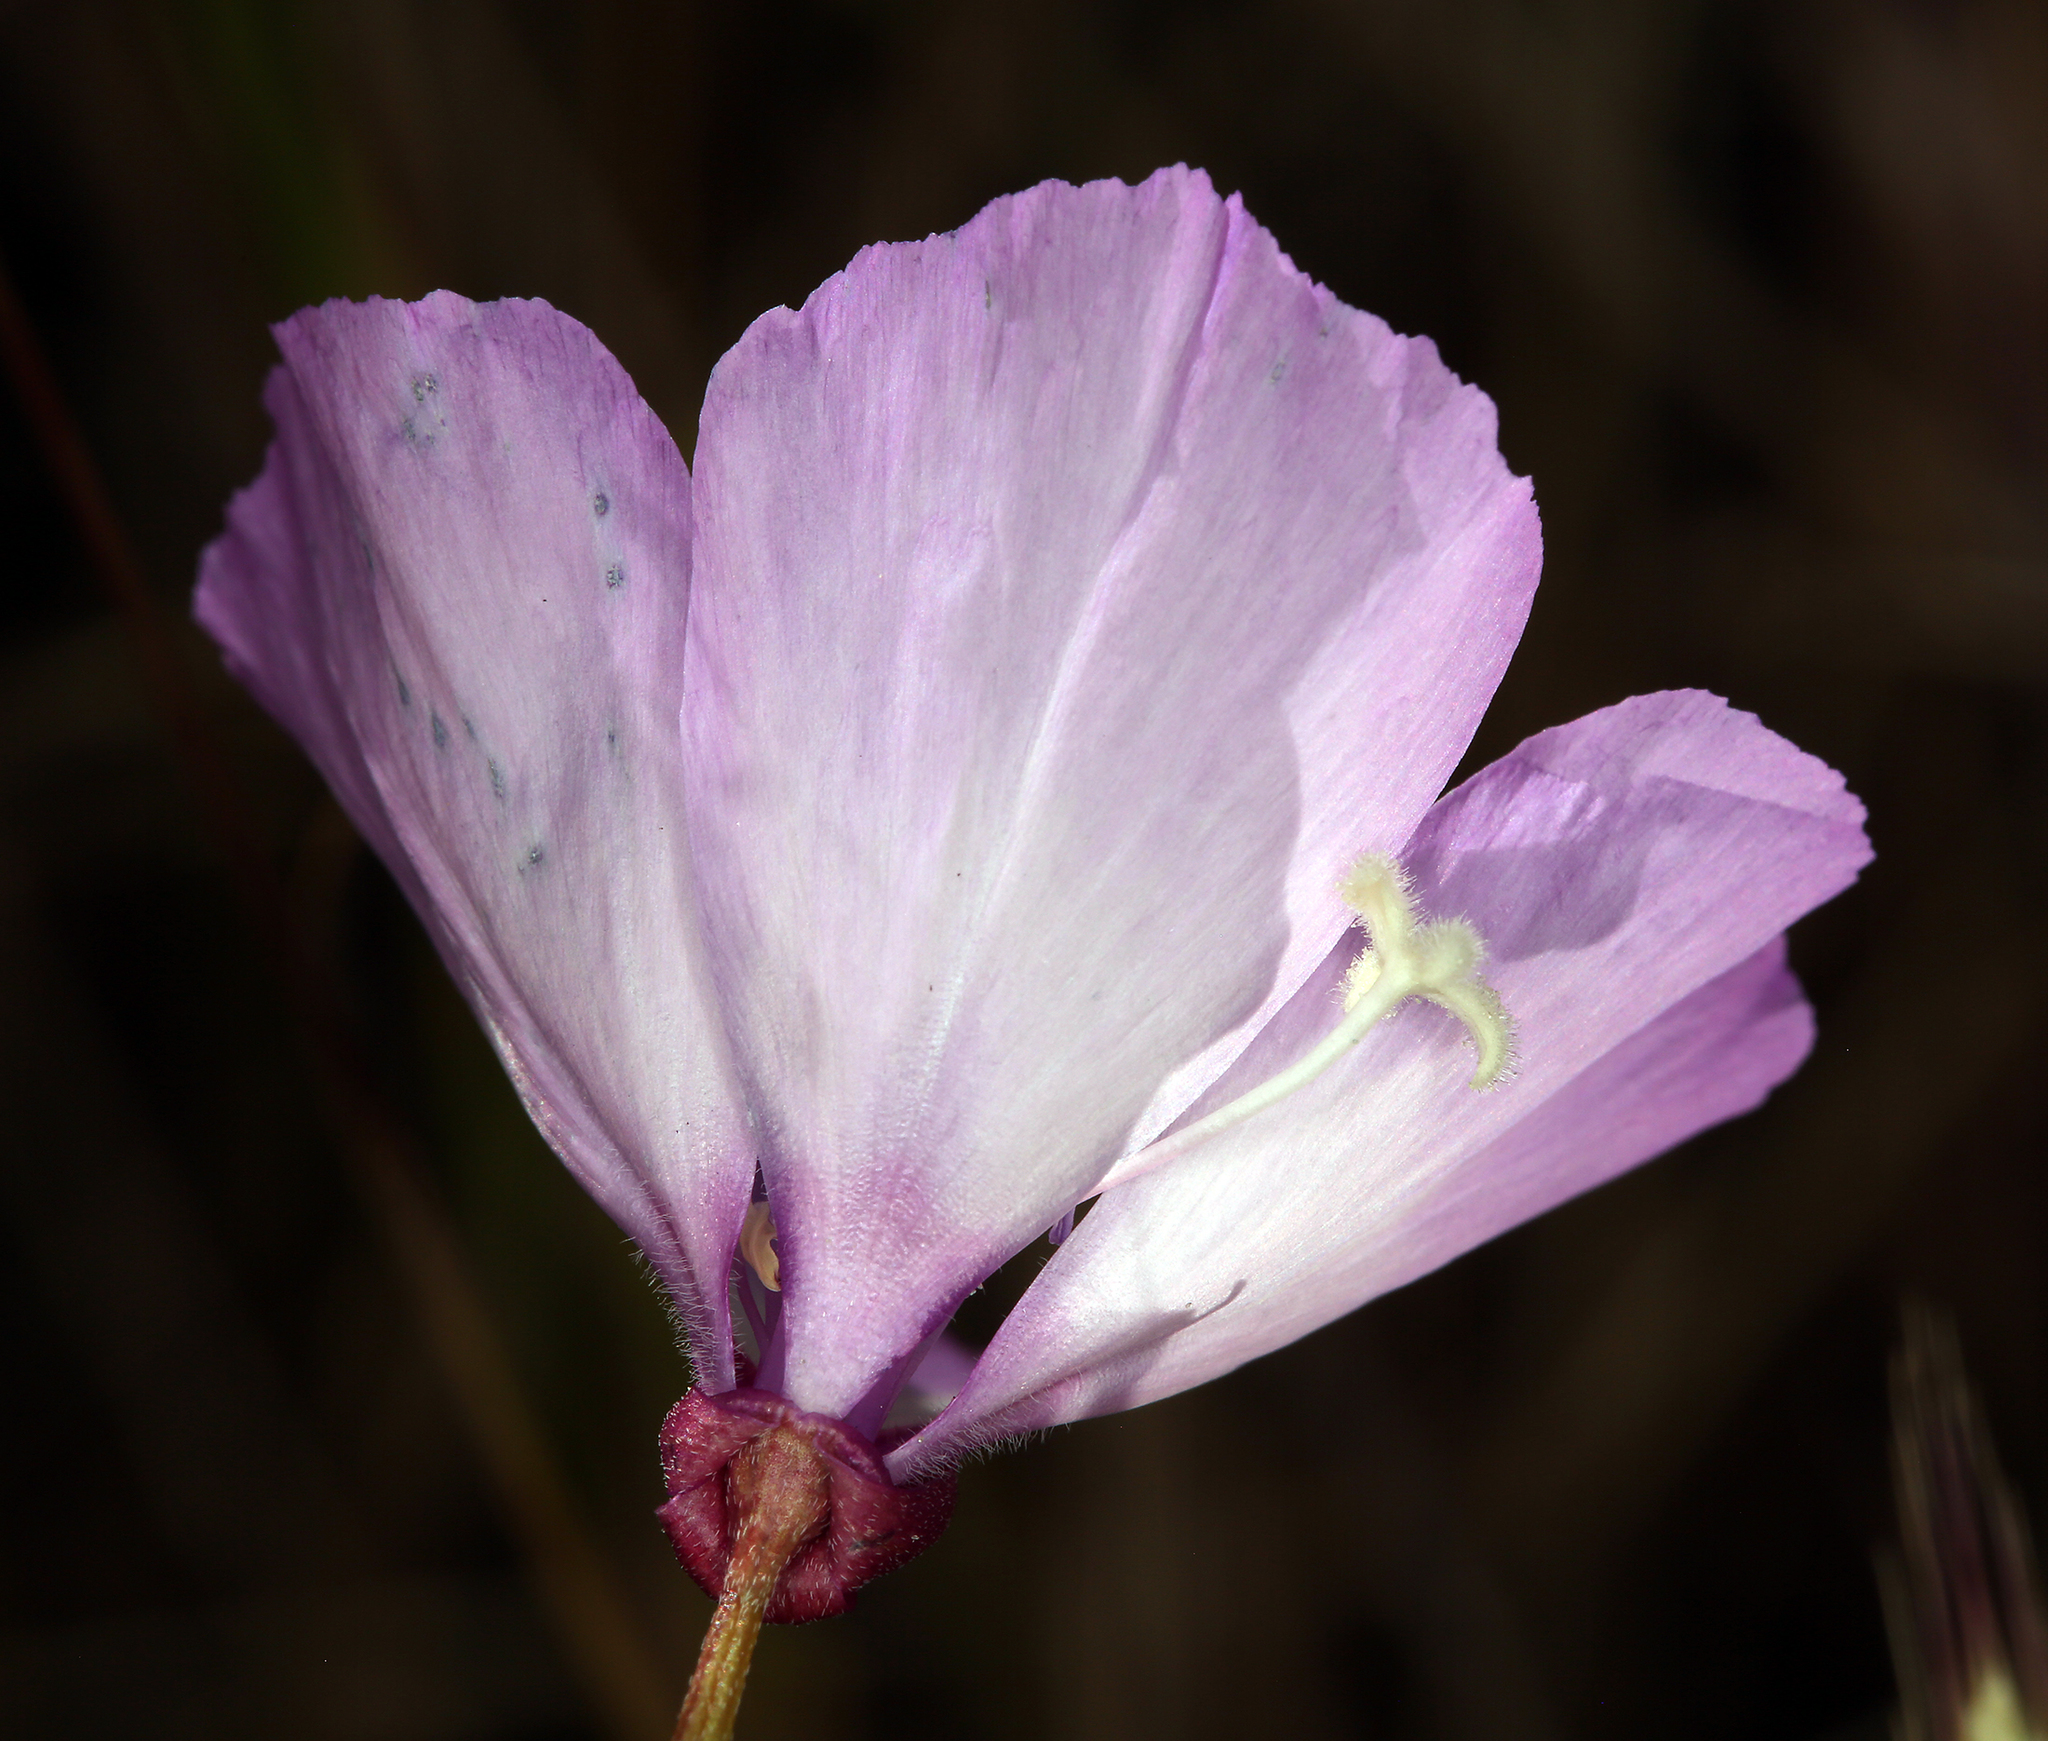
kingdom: Plantae
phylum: Tracheophyta
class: Magnoliopsida
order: Myrtales
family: Onagraceae
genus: Clarkia
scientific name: Clarkia cylindrica
